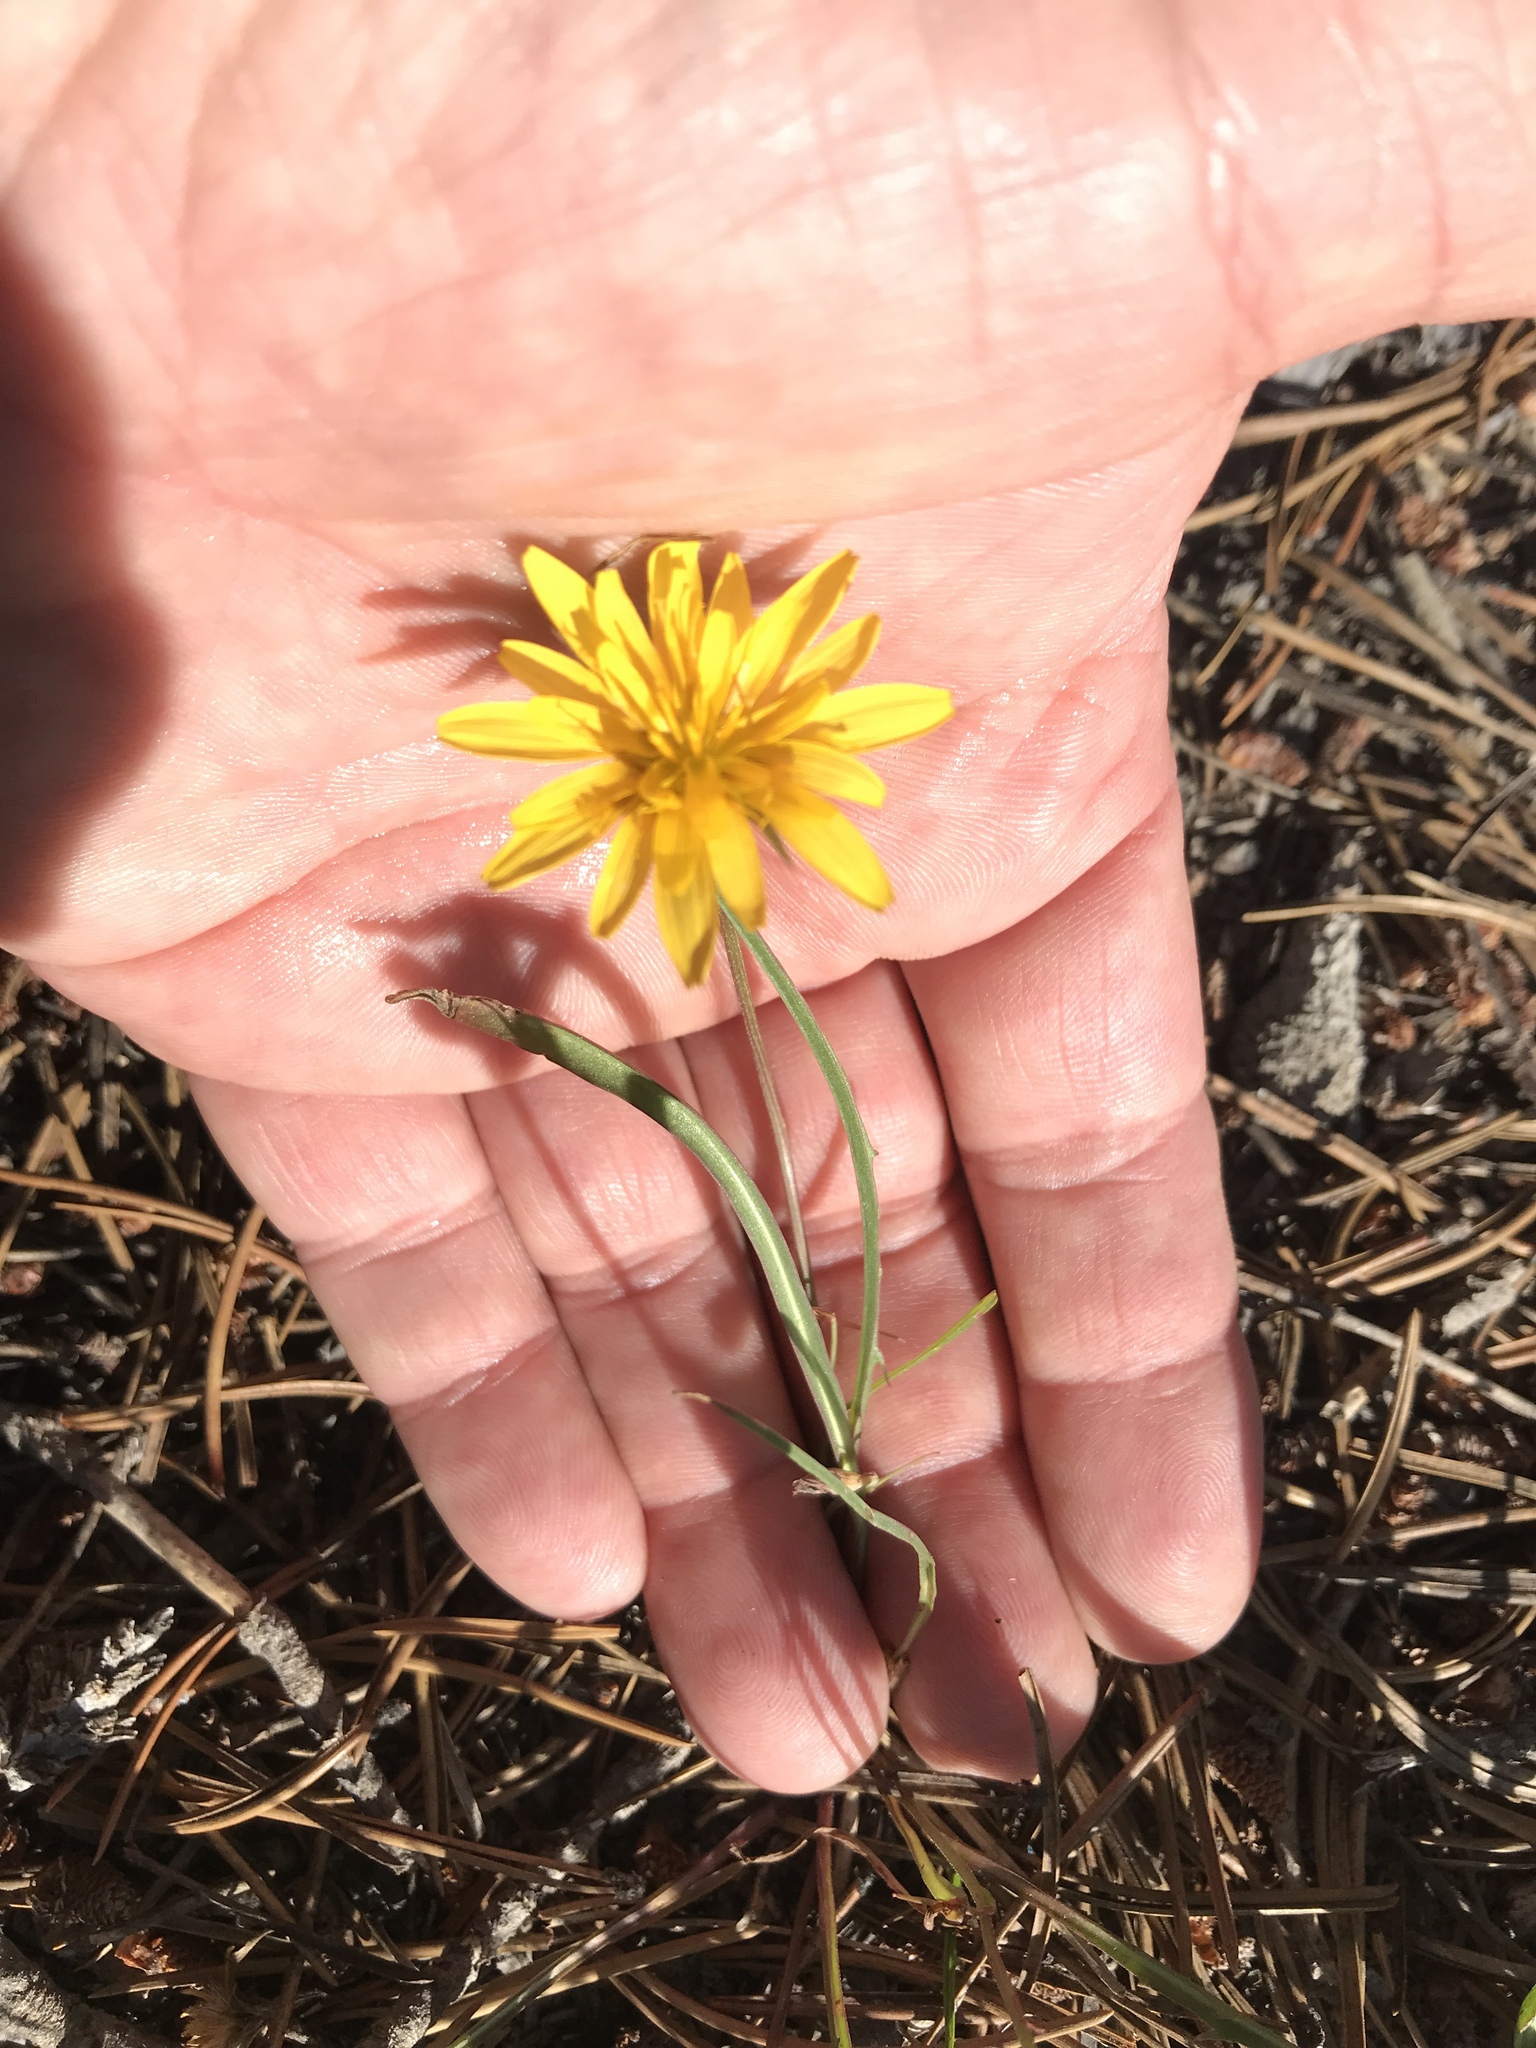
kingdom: Plantae
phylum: Tracheophyta
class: Magnoliopsida
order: Asterales
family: Asteraceae
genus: Agoseris
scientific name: Agoseris glauca
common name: Prairie agoseris
